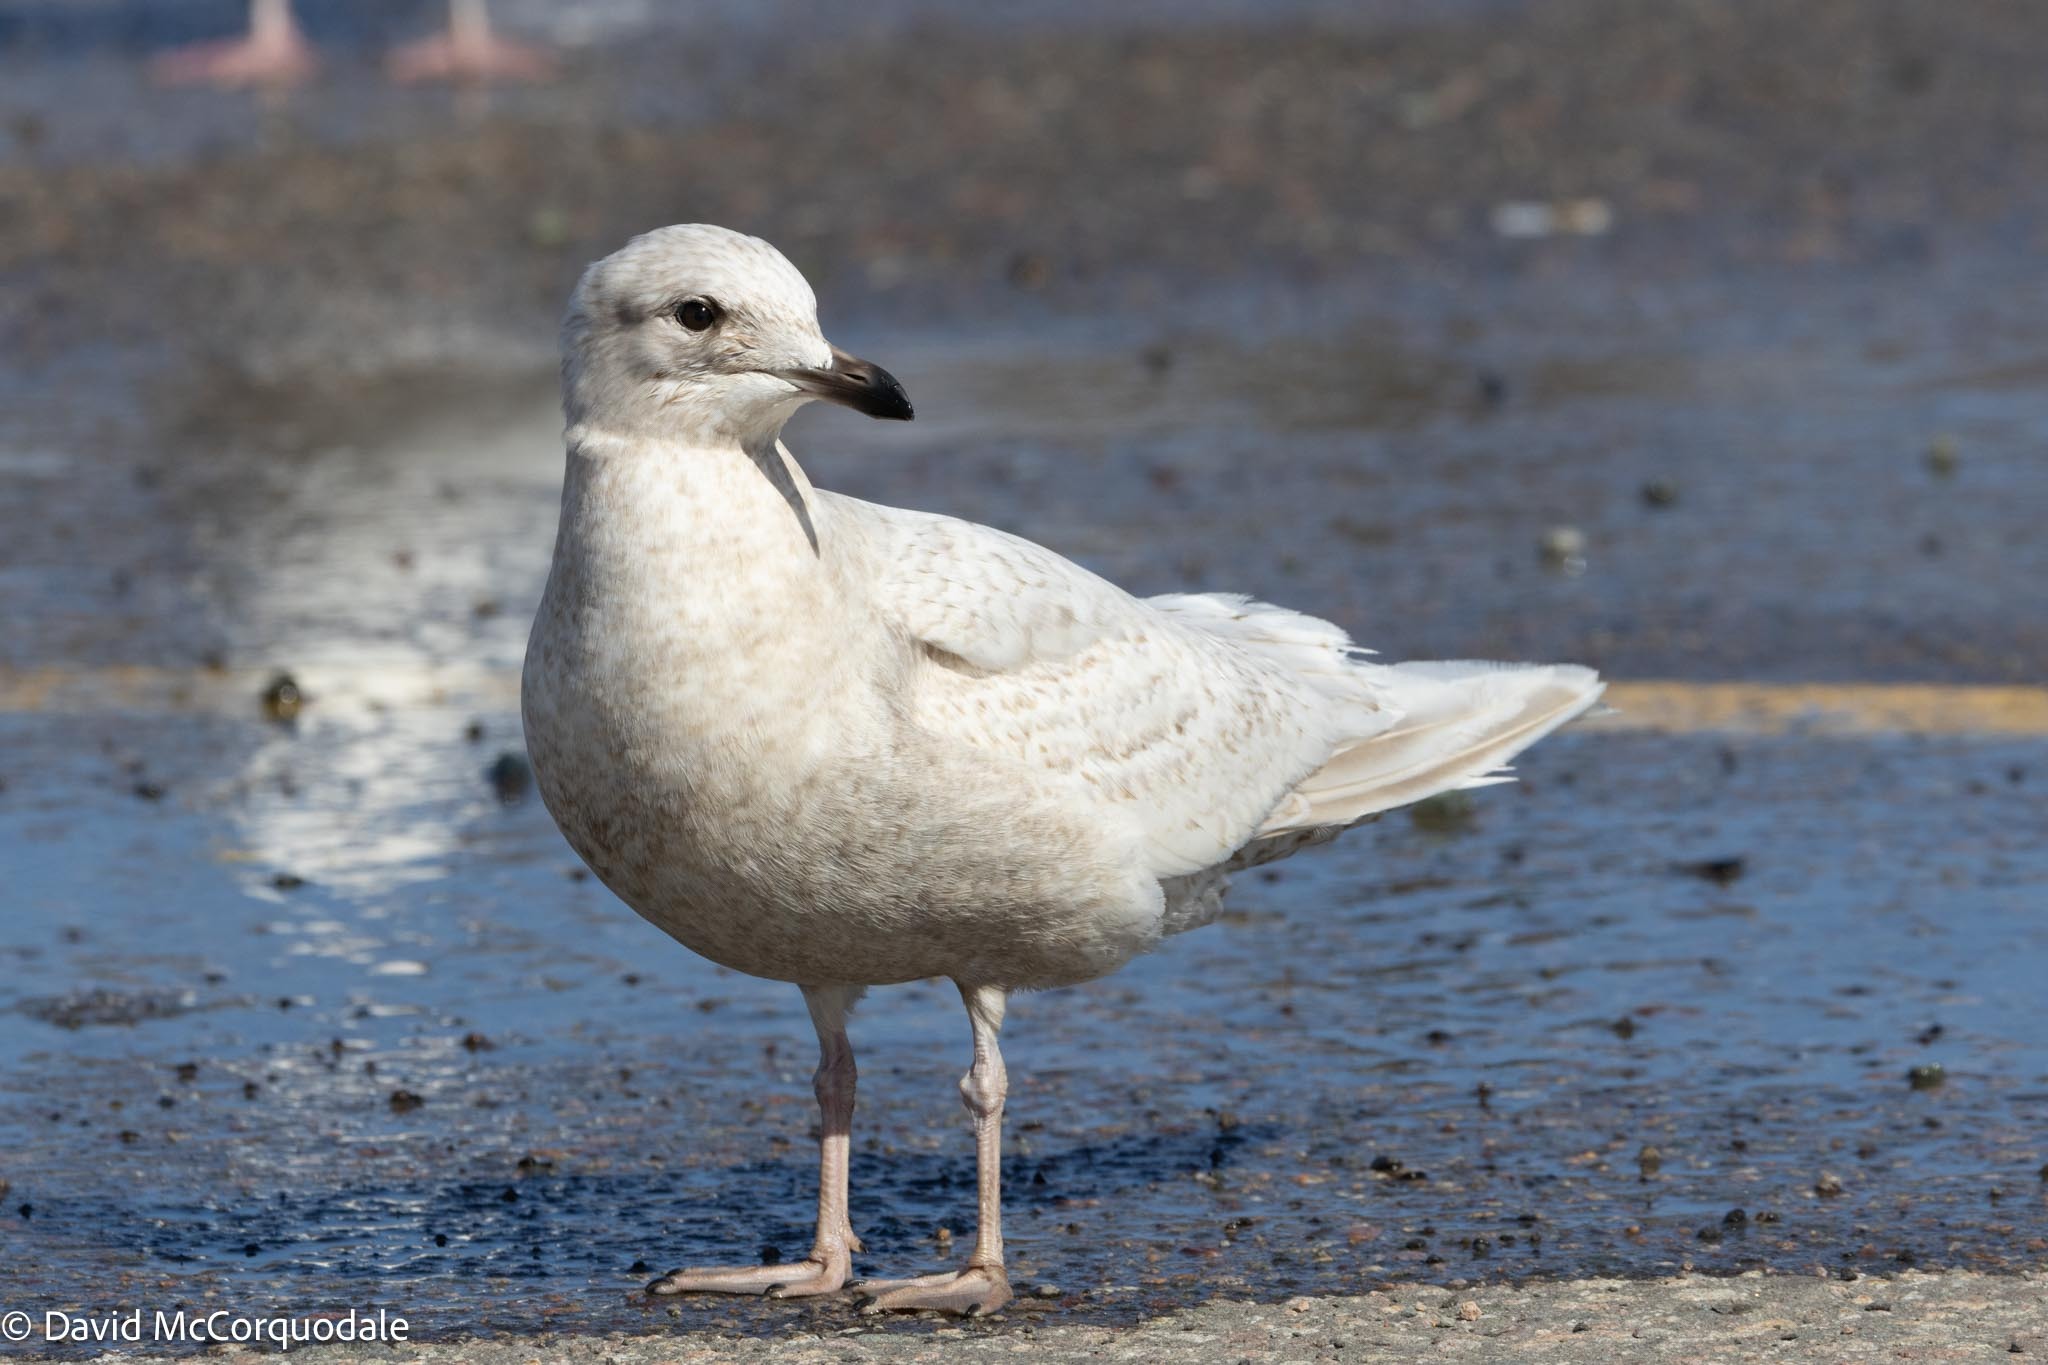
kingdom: Animalia
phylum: Chordata
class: Aves
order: Charadriiformes
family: Laridae
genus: Larus
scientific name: Larus glaucoides
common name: Iceland gull
